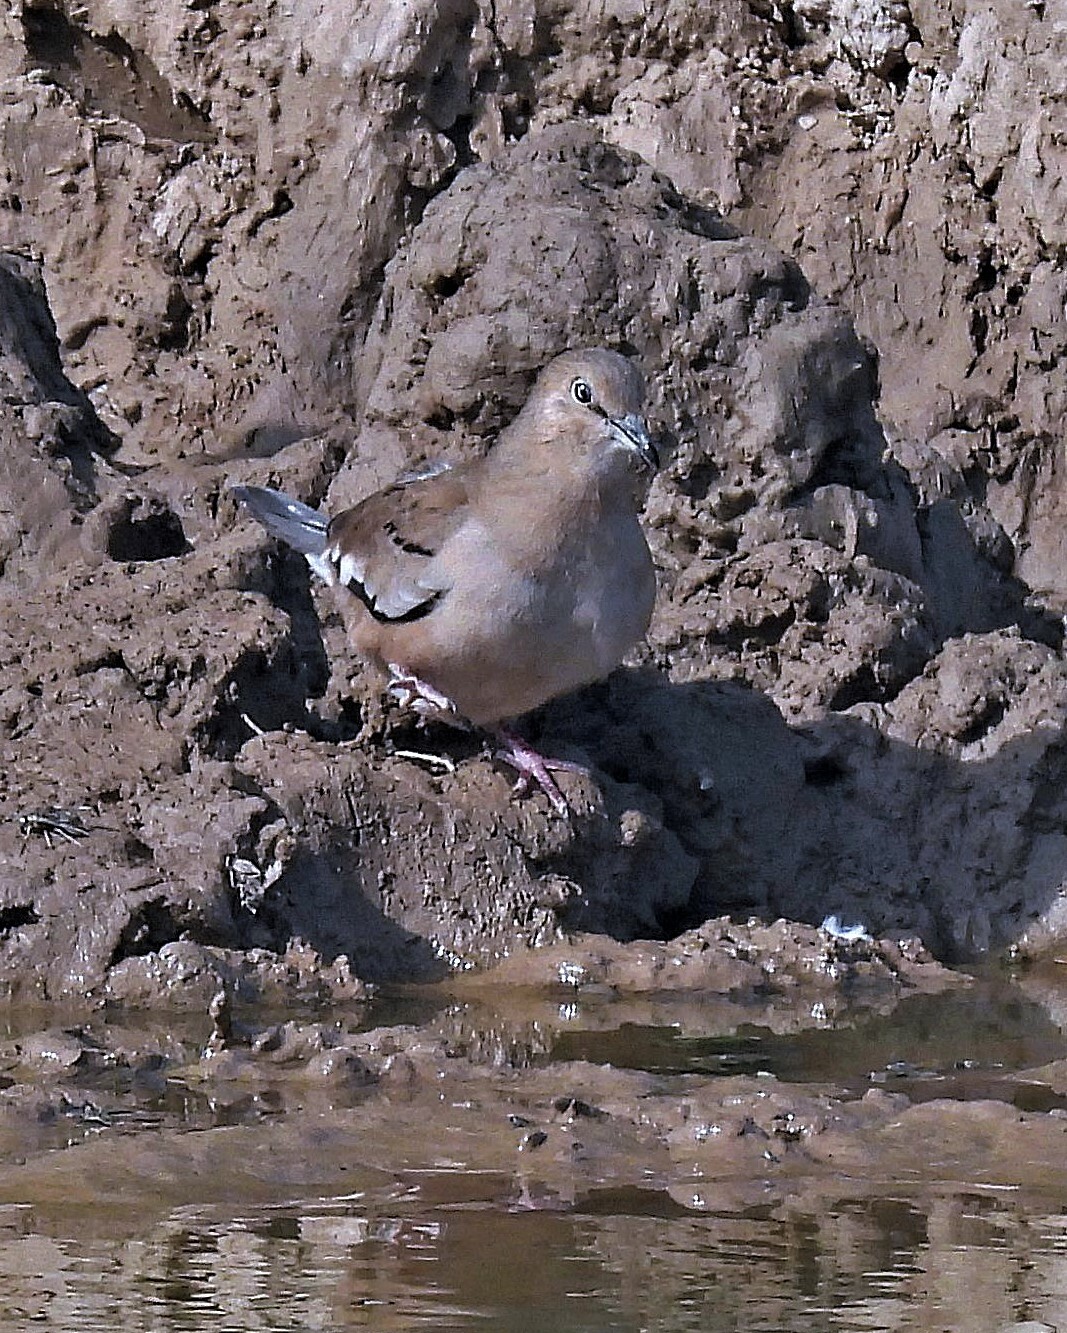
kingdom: Animalia
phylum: Chordata
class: Aves
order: Columbiformes
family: Columbidae
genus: Columbina
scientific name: Columbina picui
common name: Picui ground dove
